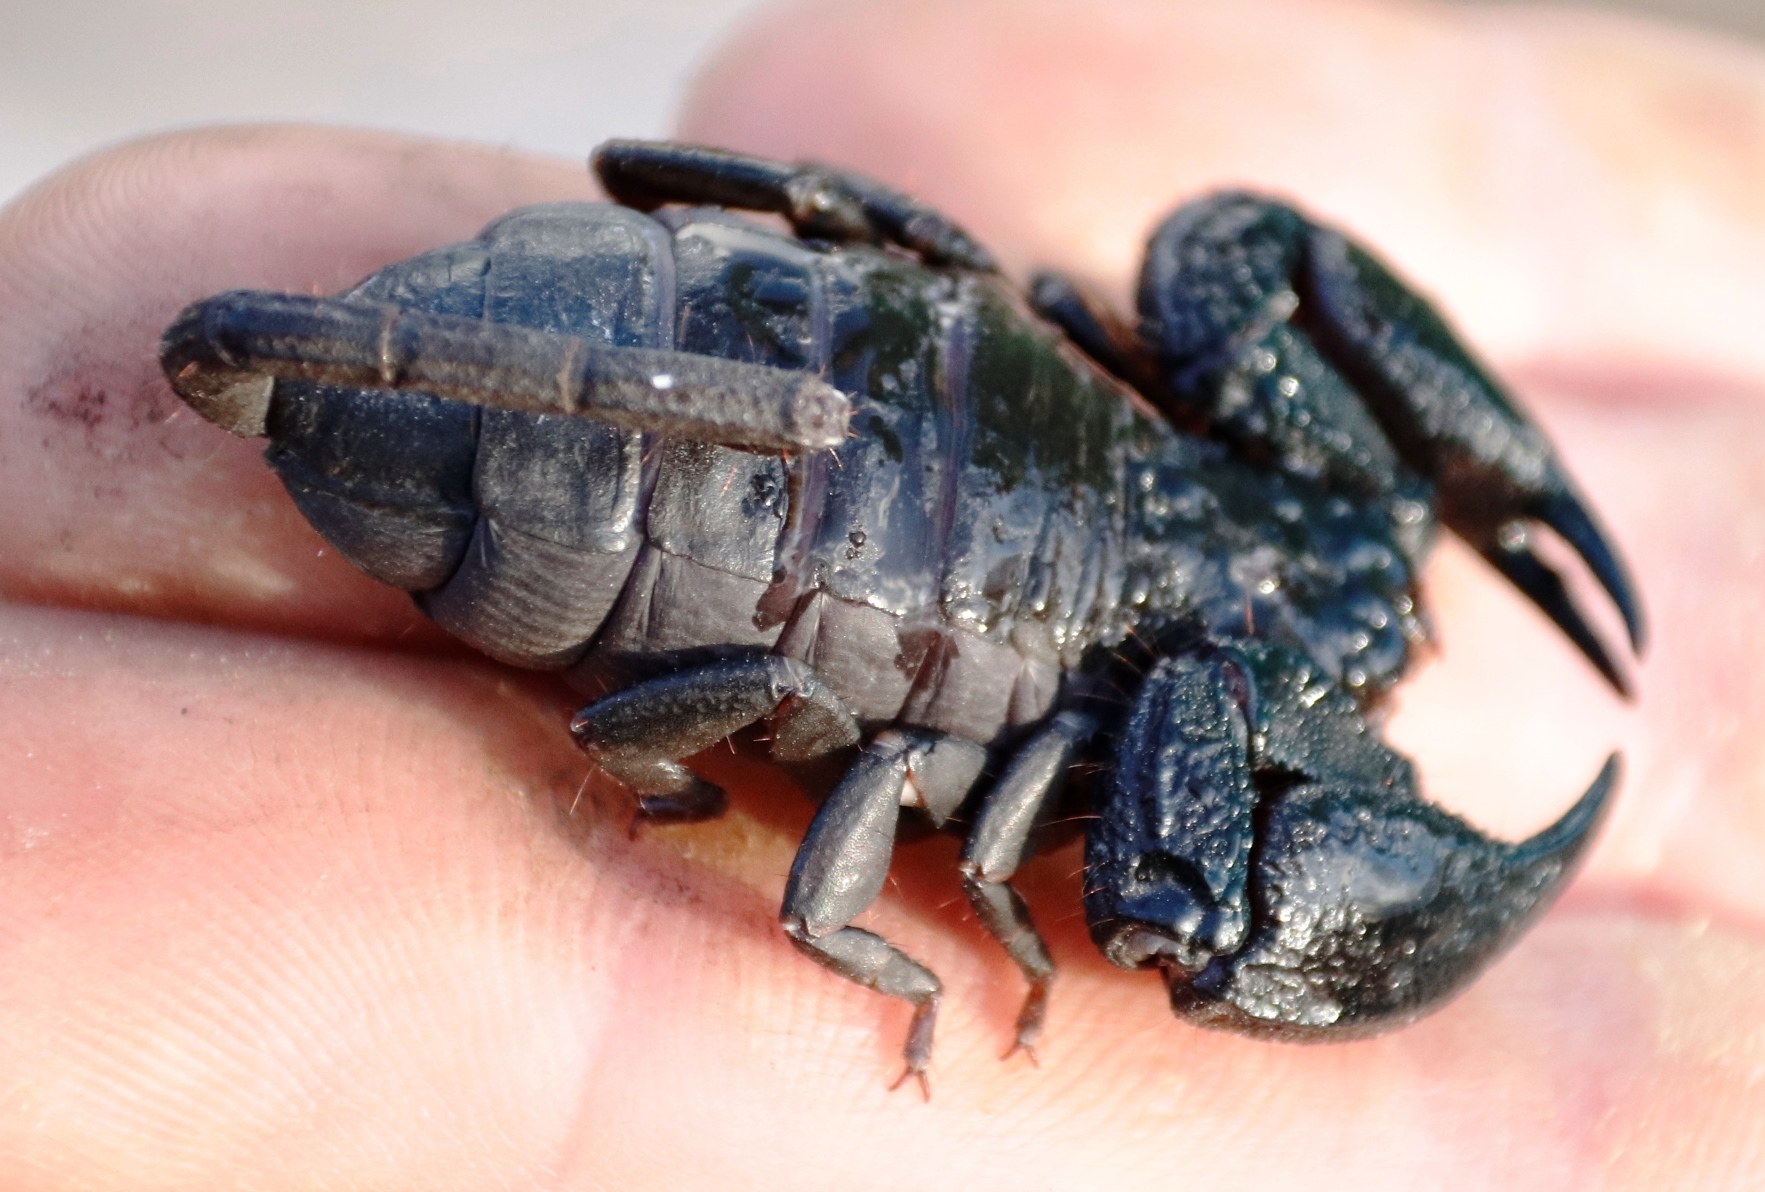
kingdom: Animalia
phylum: Arthropoda
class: Arachnida
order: Scorpiones
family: Hormuridae
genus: Opisthacanthus
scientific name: Opisthacanthus capensis
